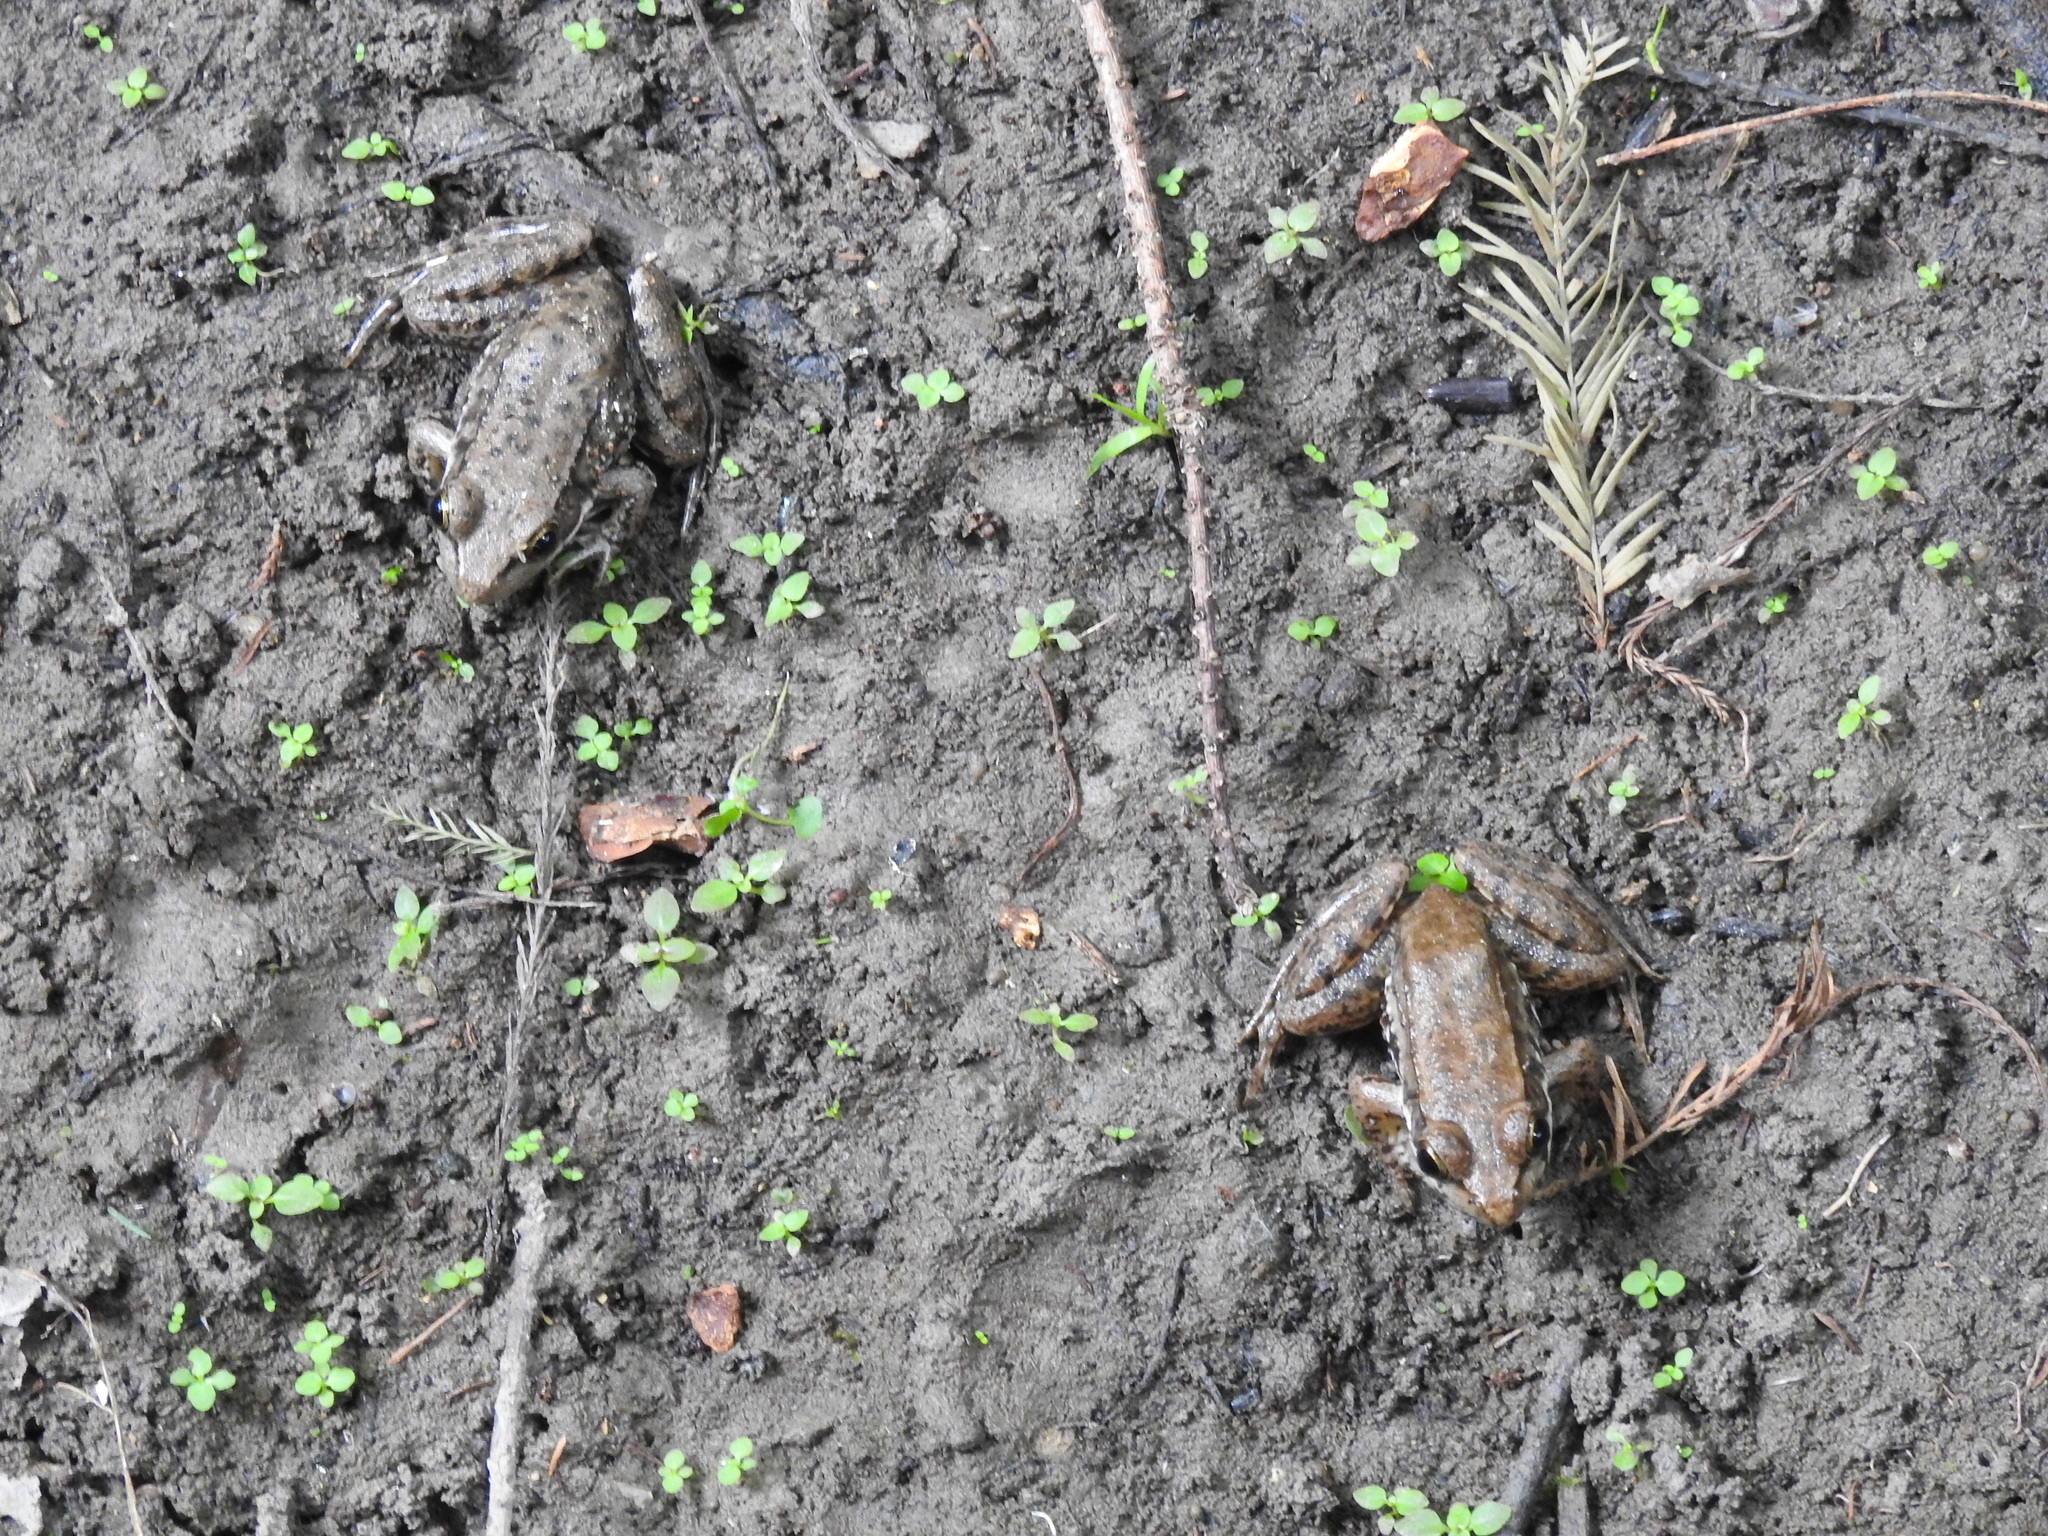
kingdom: Animalia
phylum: Chordata
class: Amphibia
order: Anura
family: Ranidae
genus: Lithobates
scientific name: Lithobates clamitans
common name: Green frog
